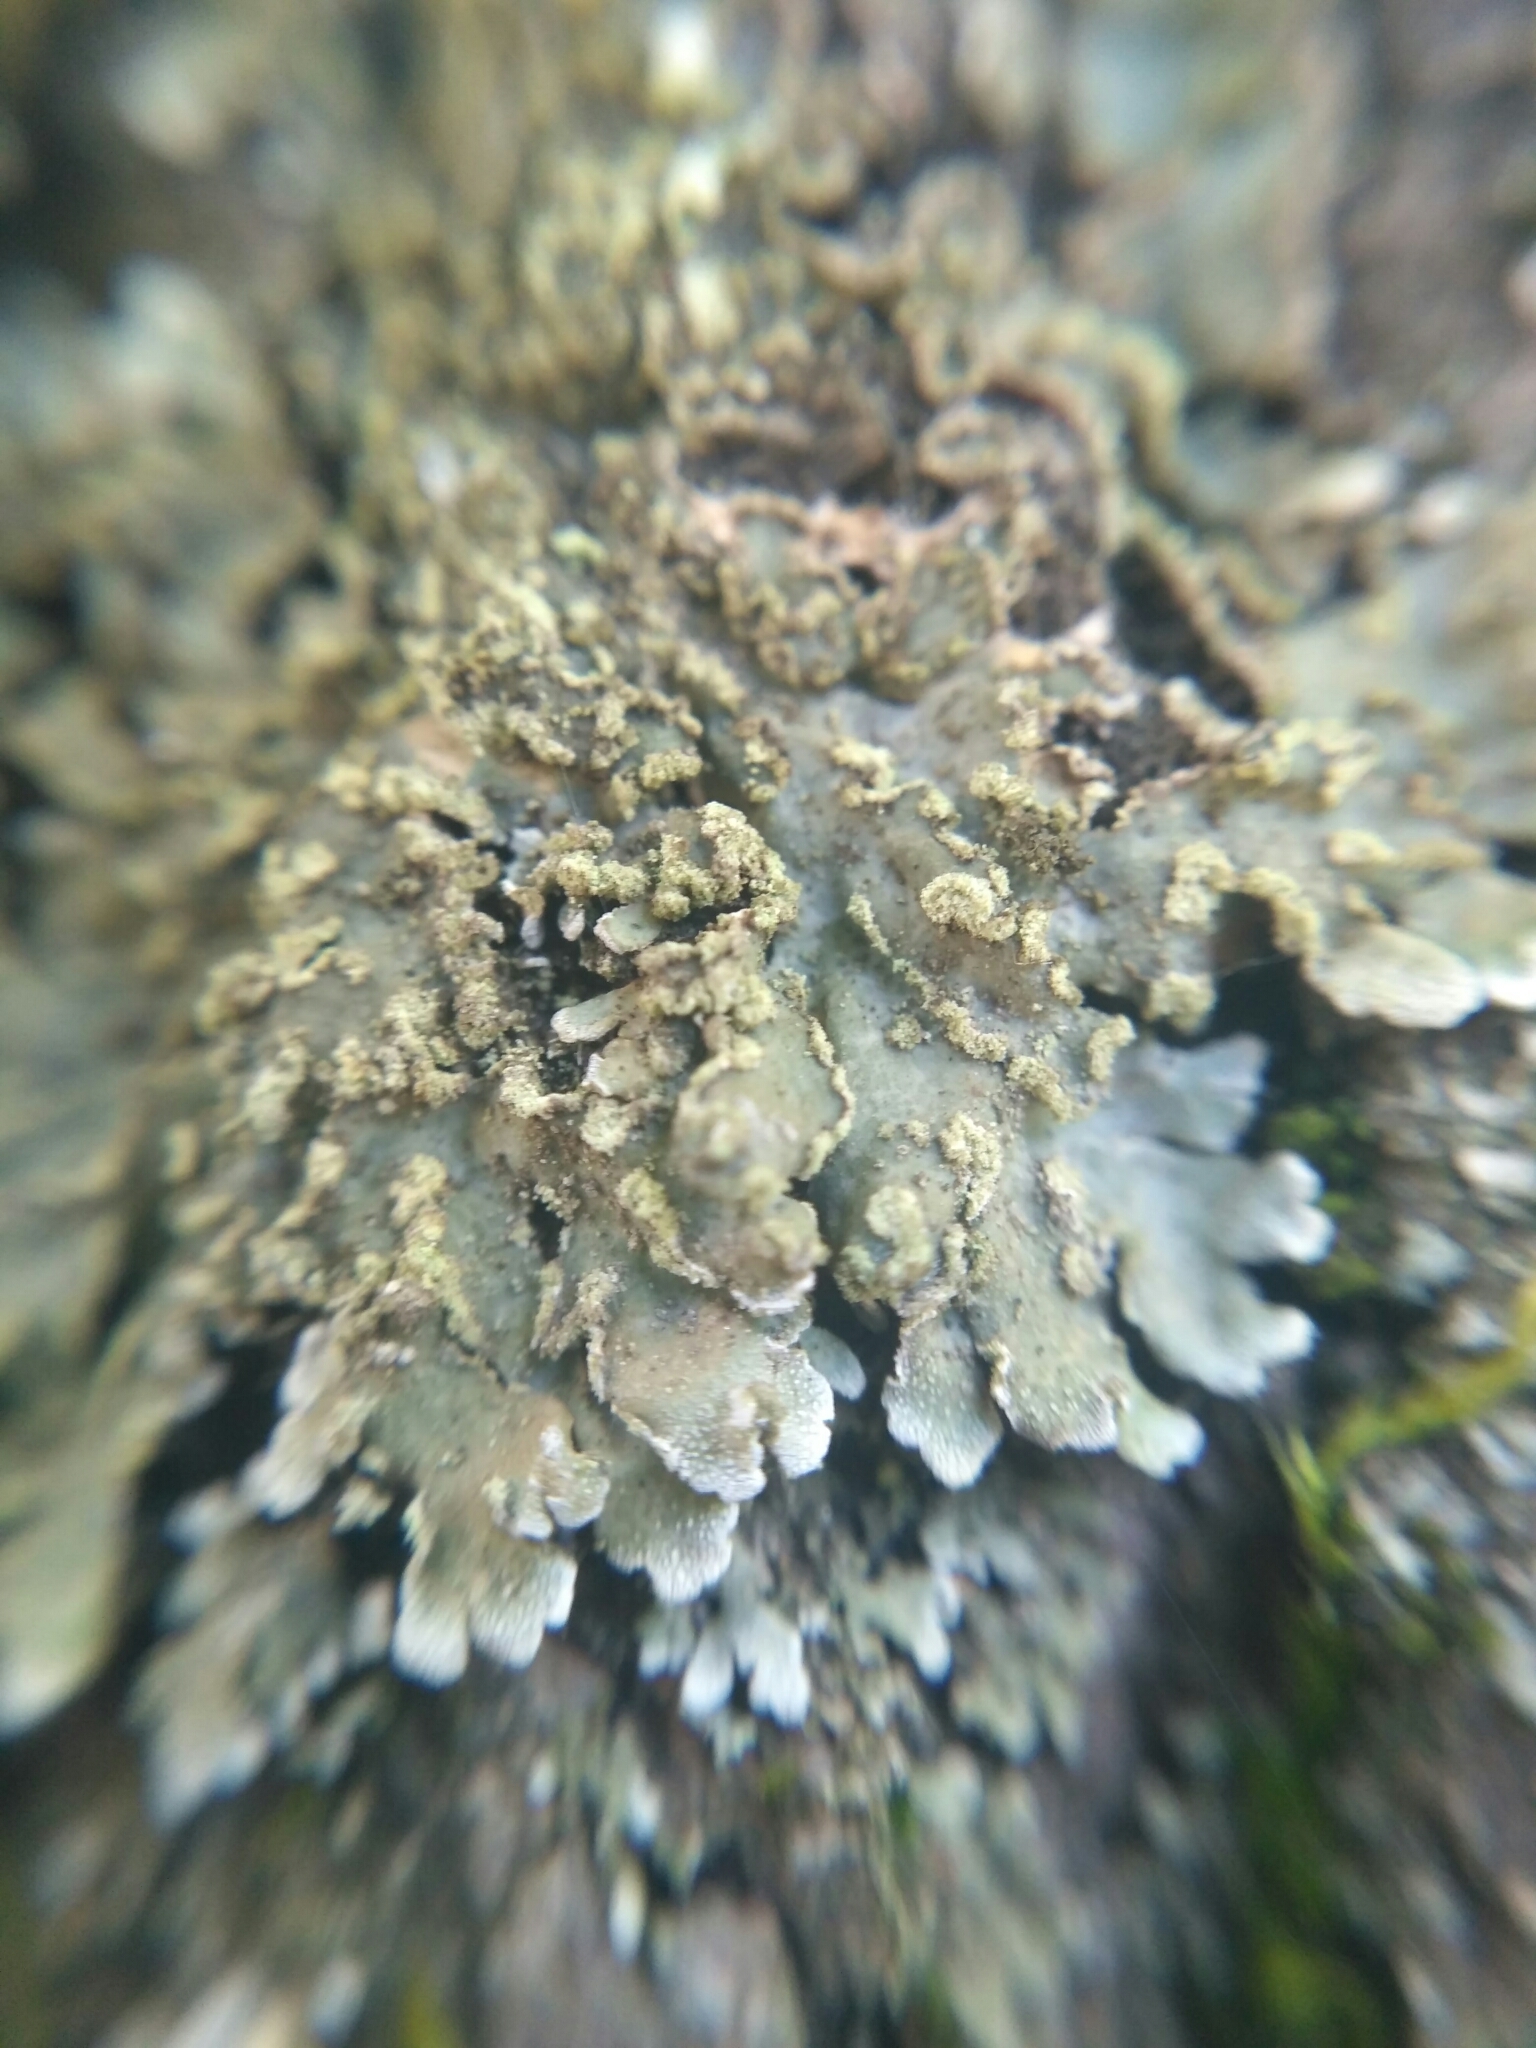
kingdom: Fungi
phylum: Ascomycota
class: Lecanoromycetes
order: Caliciales
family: Physciaceae
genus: Poeltonia
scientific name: Poeltonia grisea
